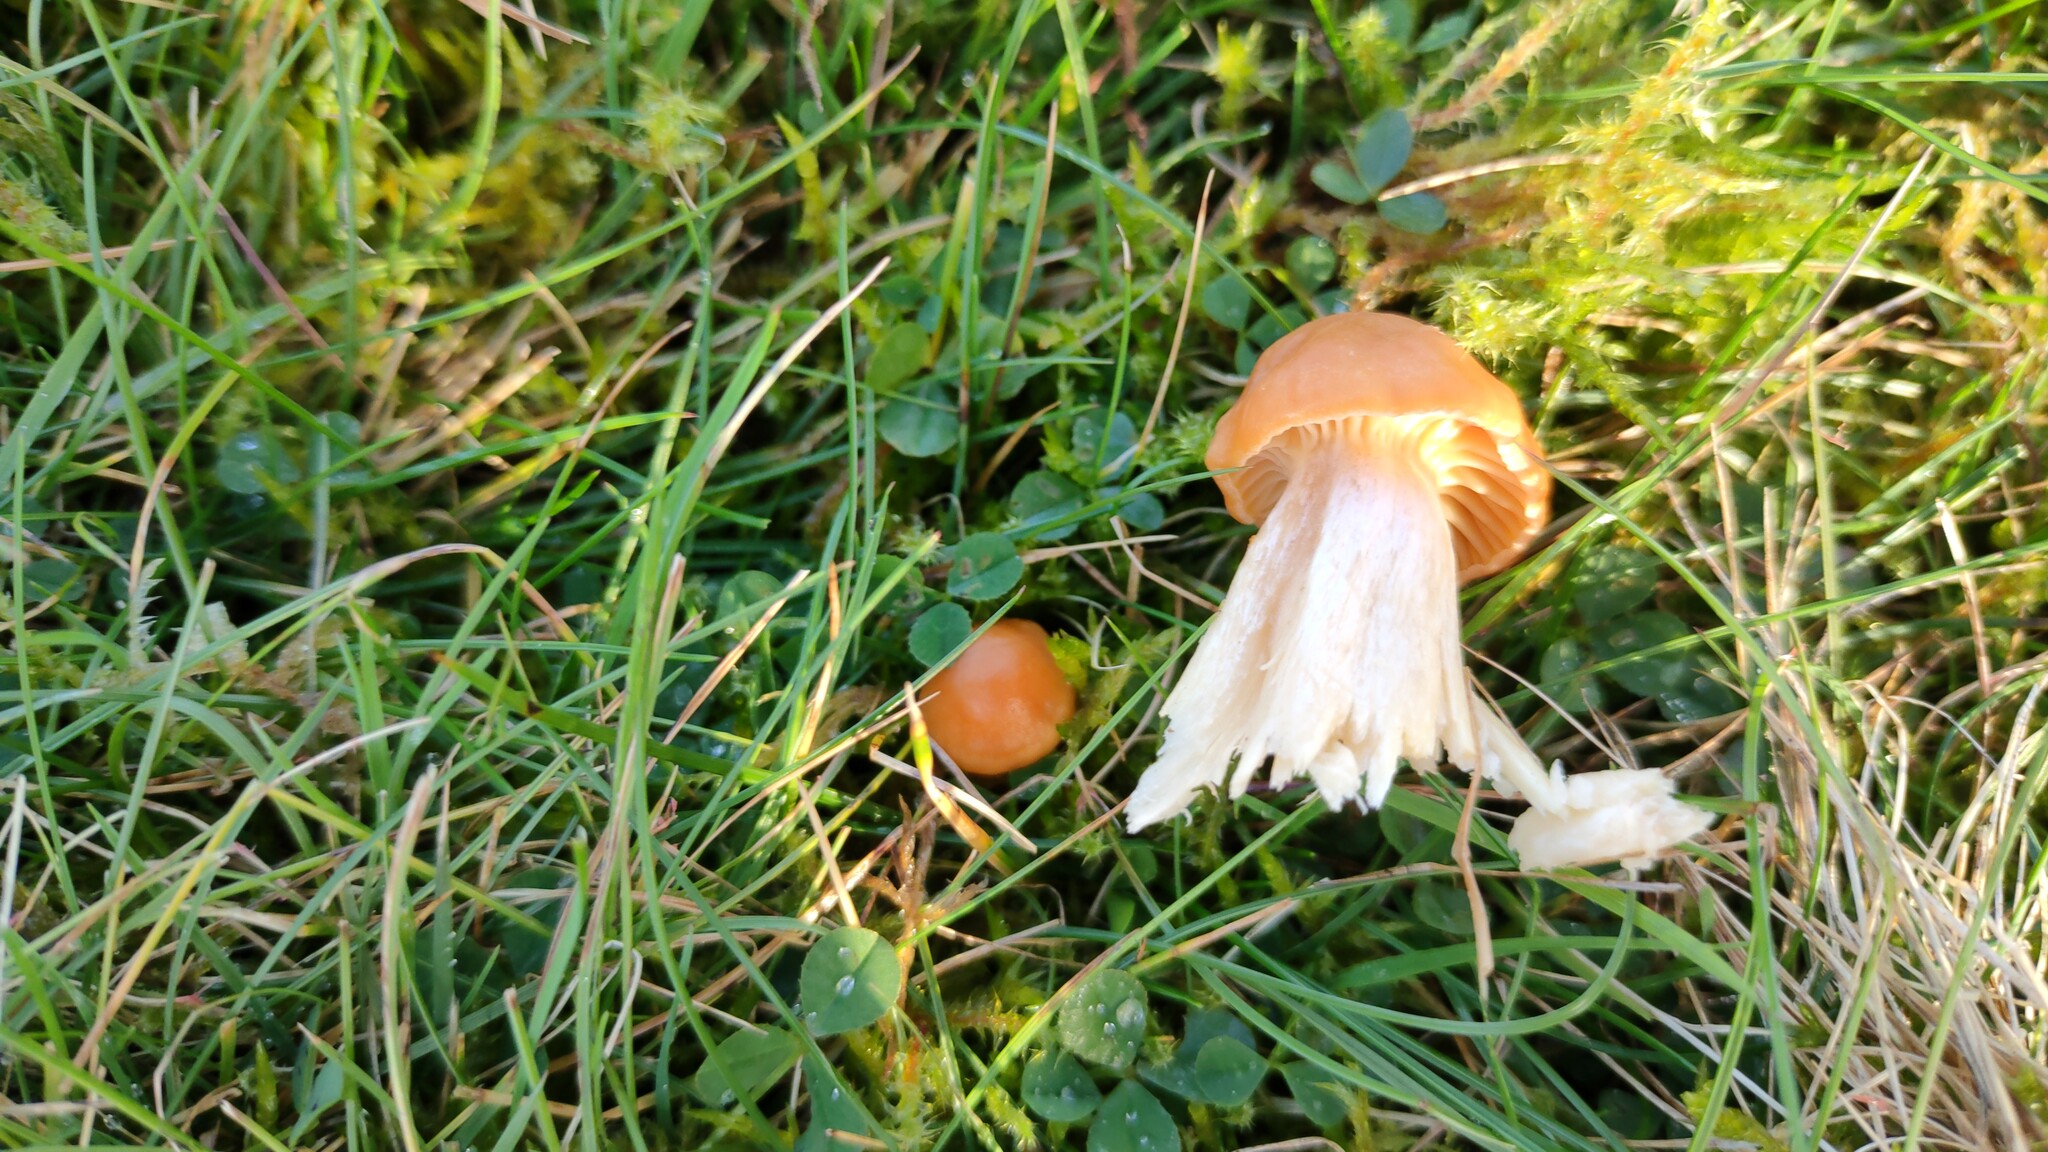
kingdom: Fungi
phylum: Basidiomycota
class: Agaricomycetes
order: Agaricales
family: Hygrophoraceae
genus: Cuphophyllus
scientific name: Cuphophyllus pratensis
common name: Meadow waxcap
